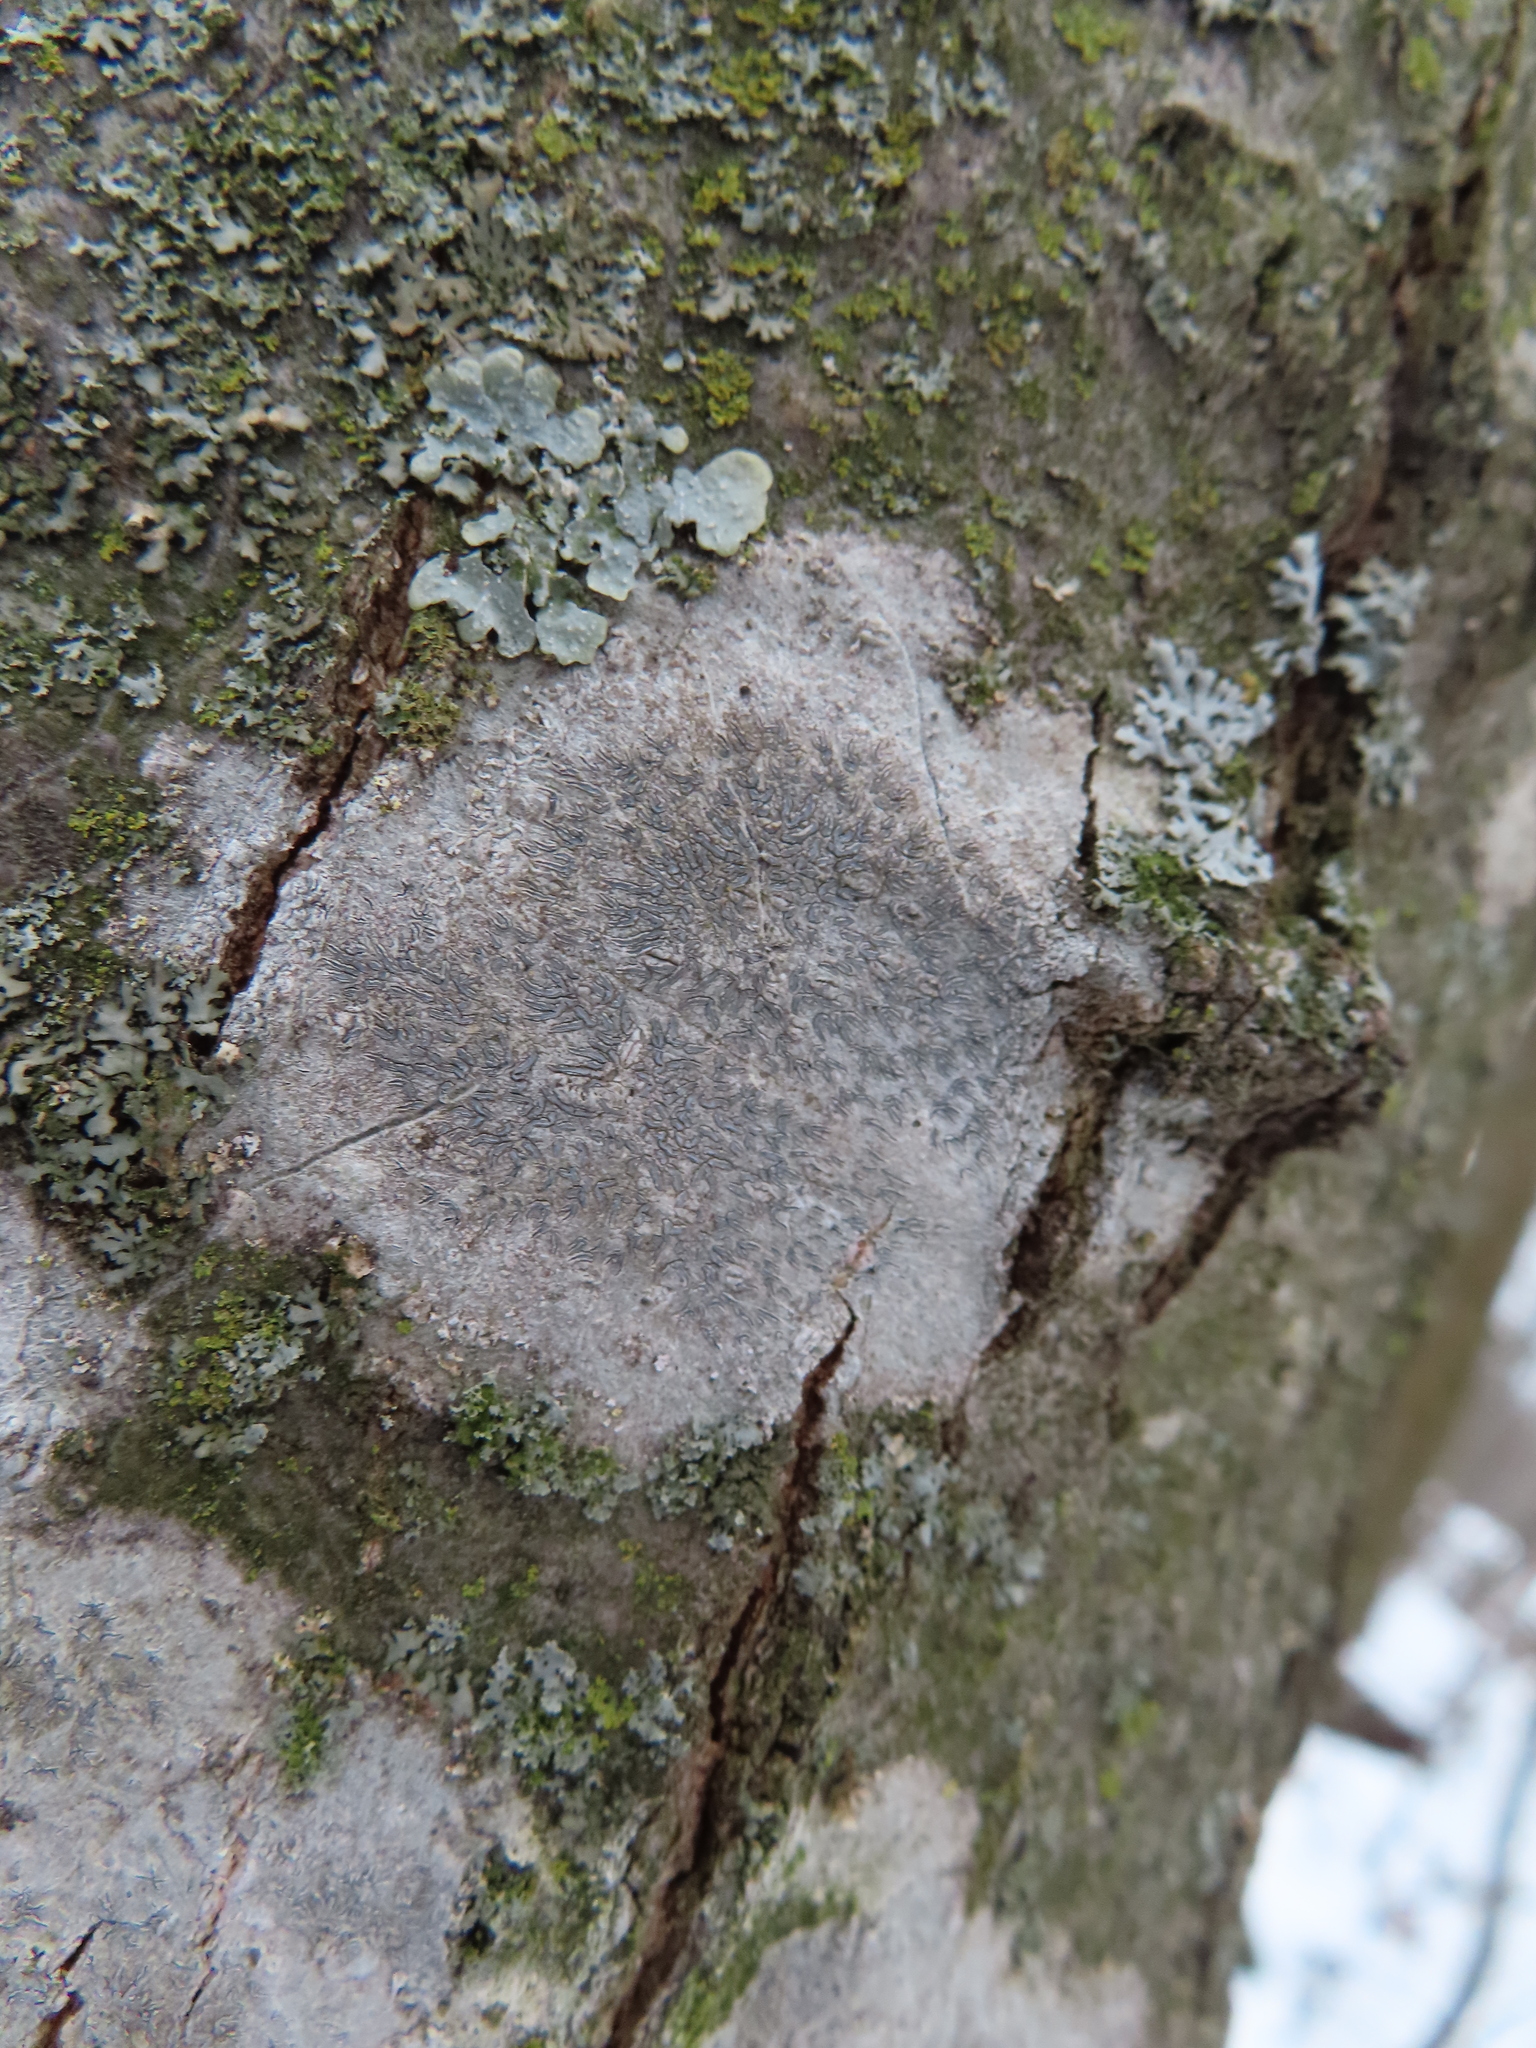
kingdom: Fungi
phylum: Ascomycota
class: Lecanoromycetes
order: Ostropales
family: Graphidaceae
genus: Graphis
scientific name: Graphis scripta
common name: Script lichen
